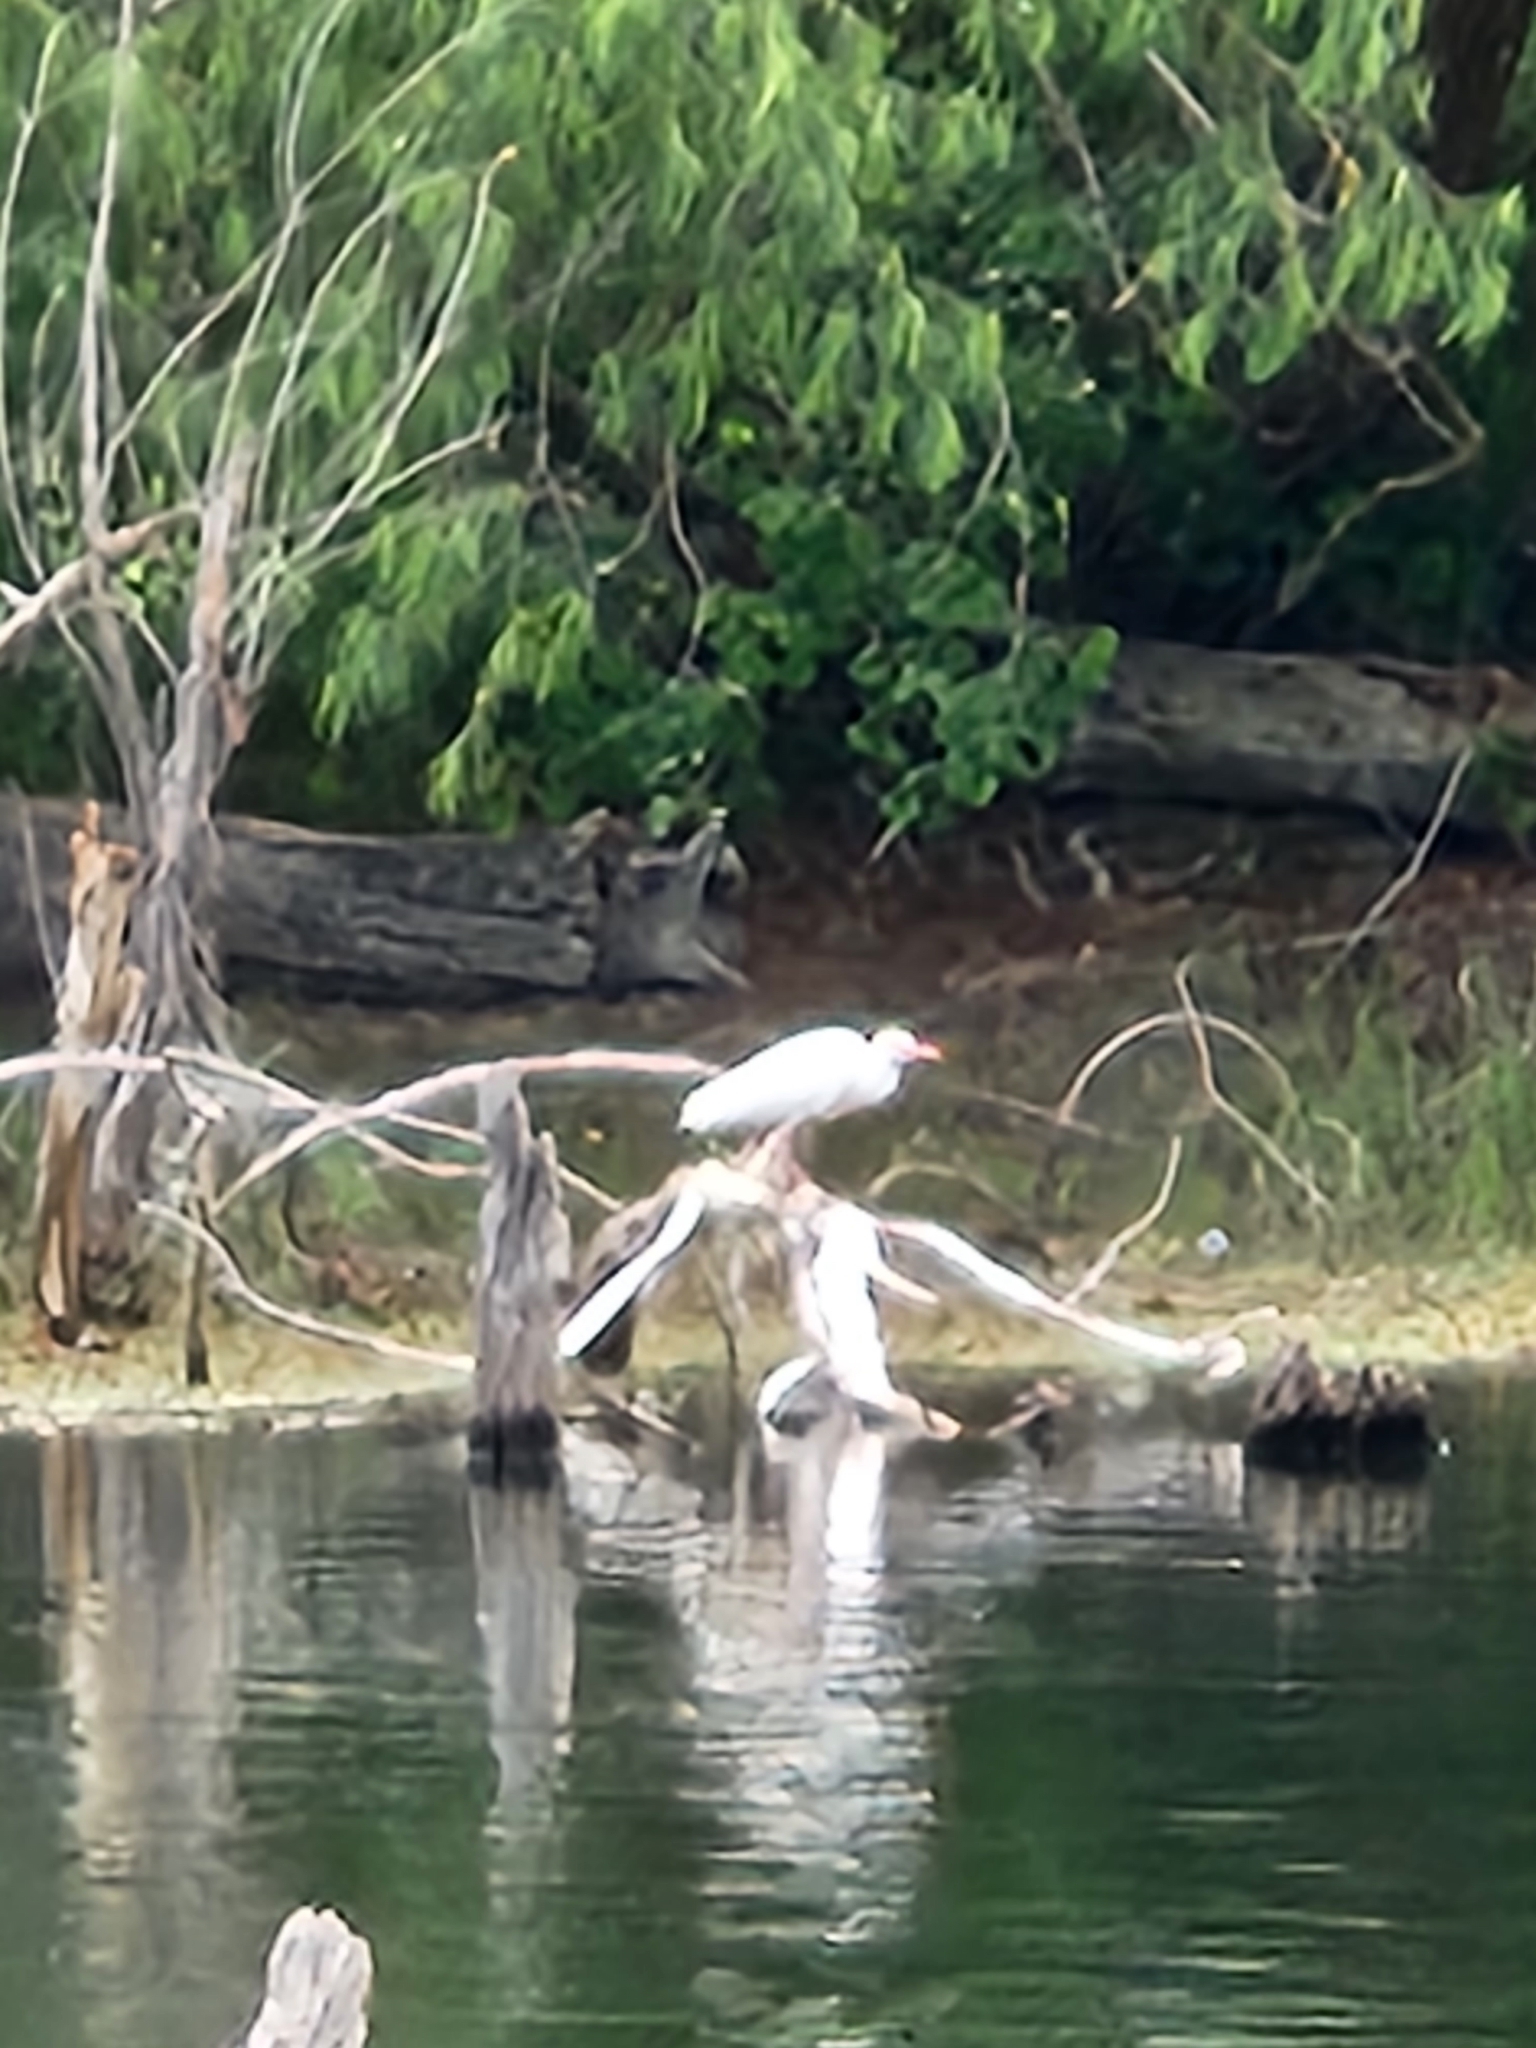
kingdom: Animalia
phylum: Chordata
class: Aves
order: Pelecaniformes
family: Ardeidae
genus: Bubulcus
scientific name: Bubulcus ibis
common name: Cattle egret
